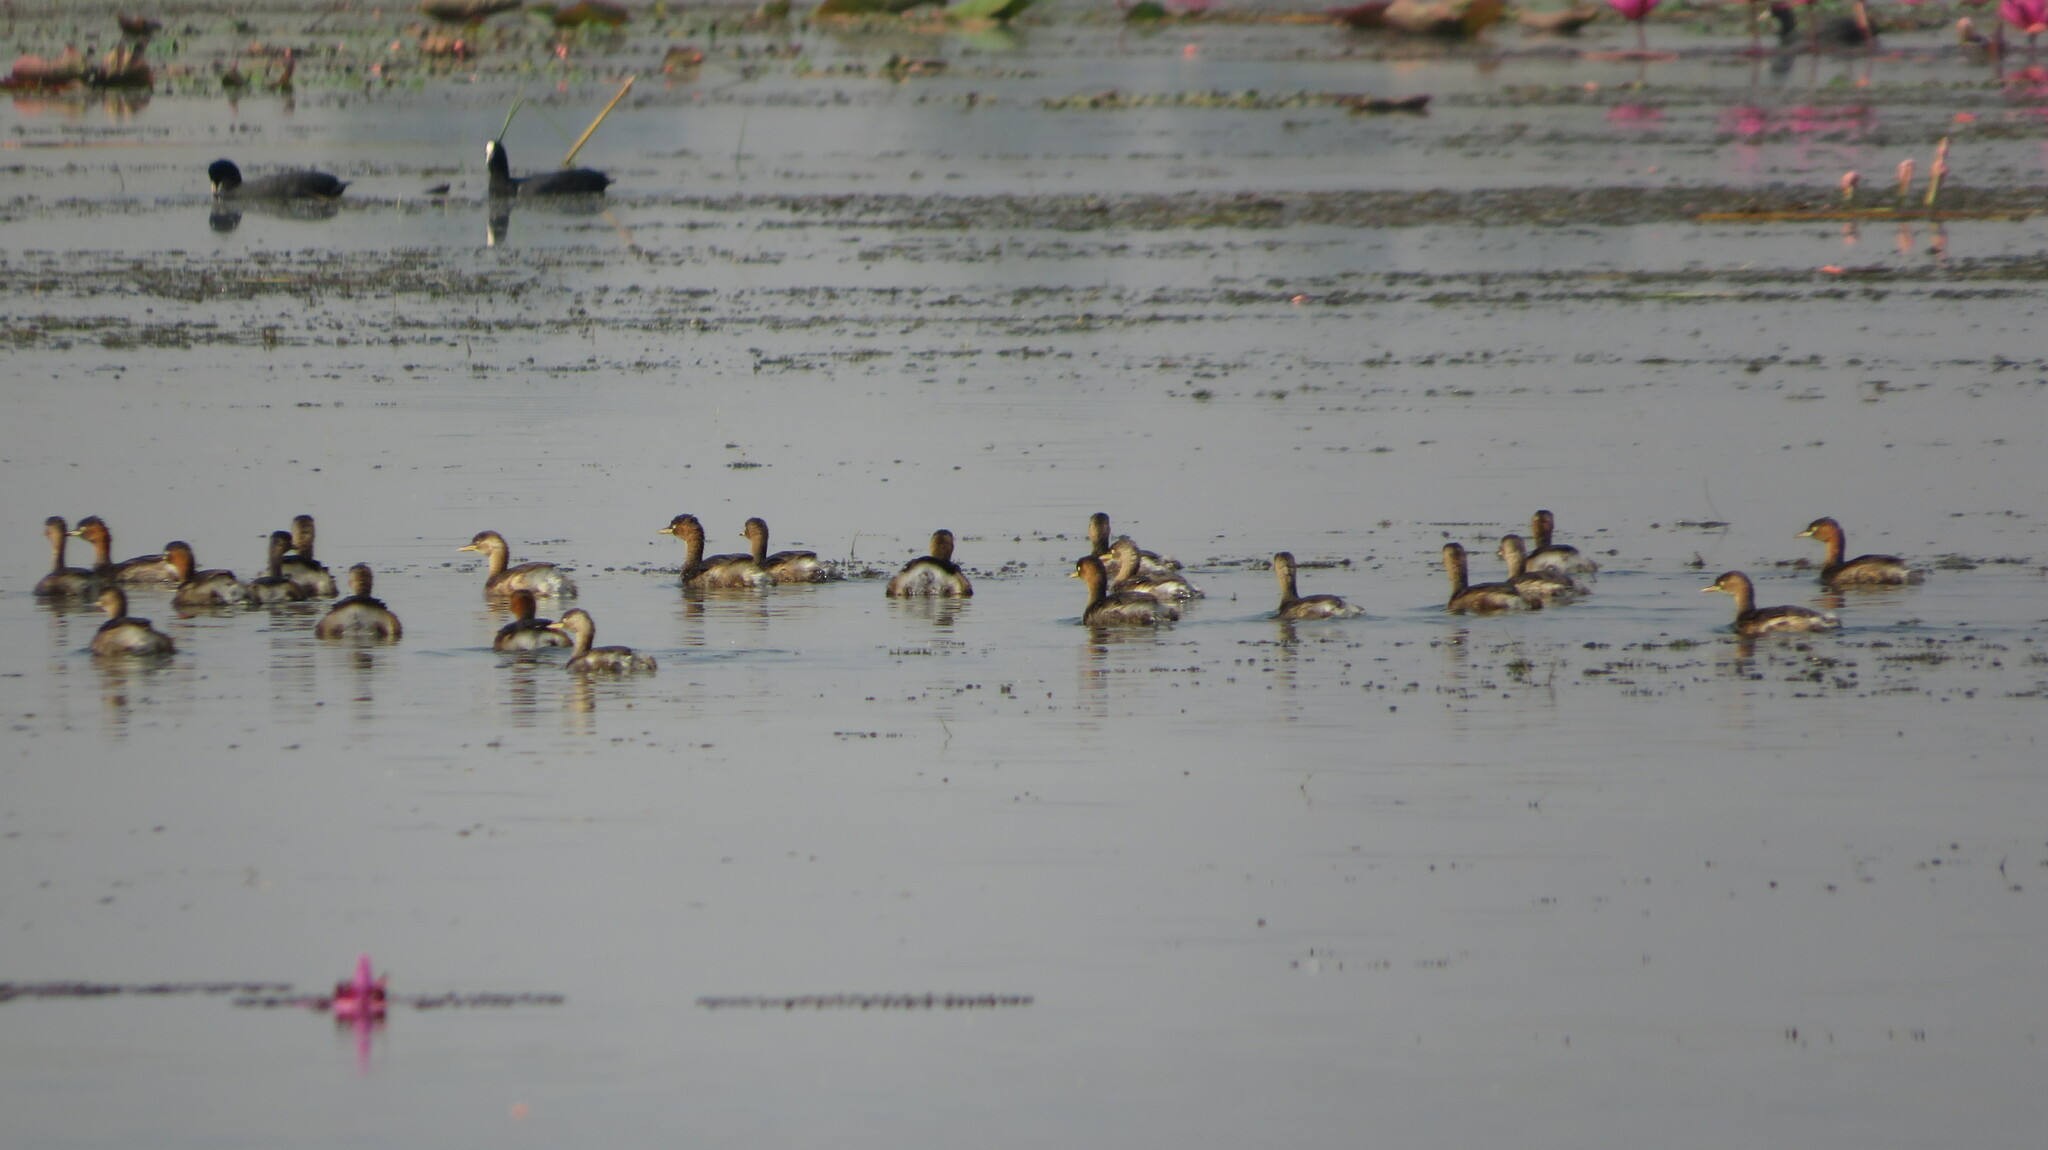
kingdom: Animalia
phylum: Chordata
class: Aves
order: Podicipediformes
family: Podicipedidae
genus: Tachybaptus
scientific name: Tachybaptus ruficollis
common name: Little grebe
